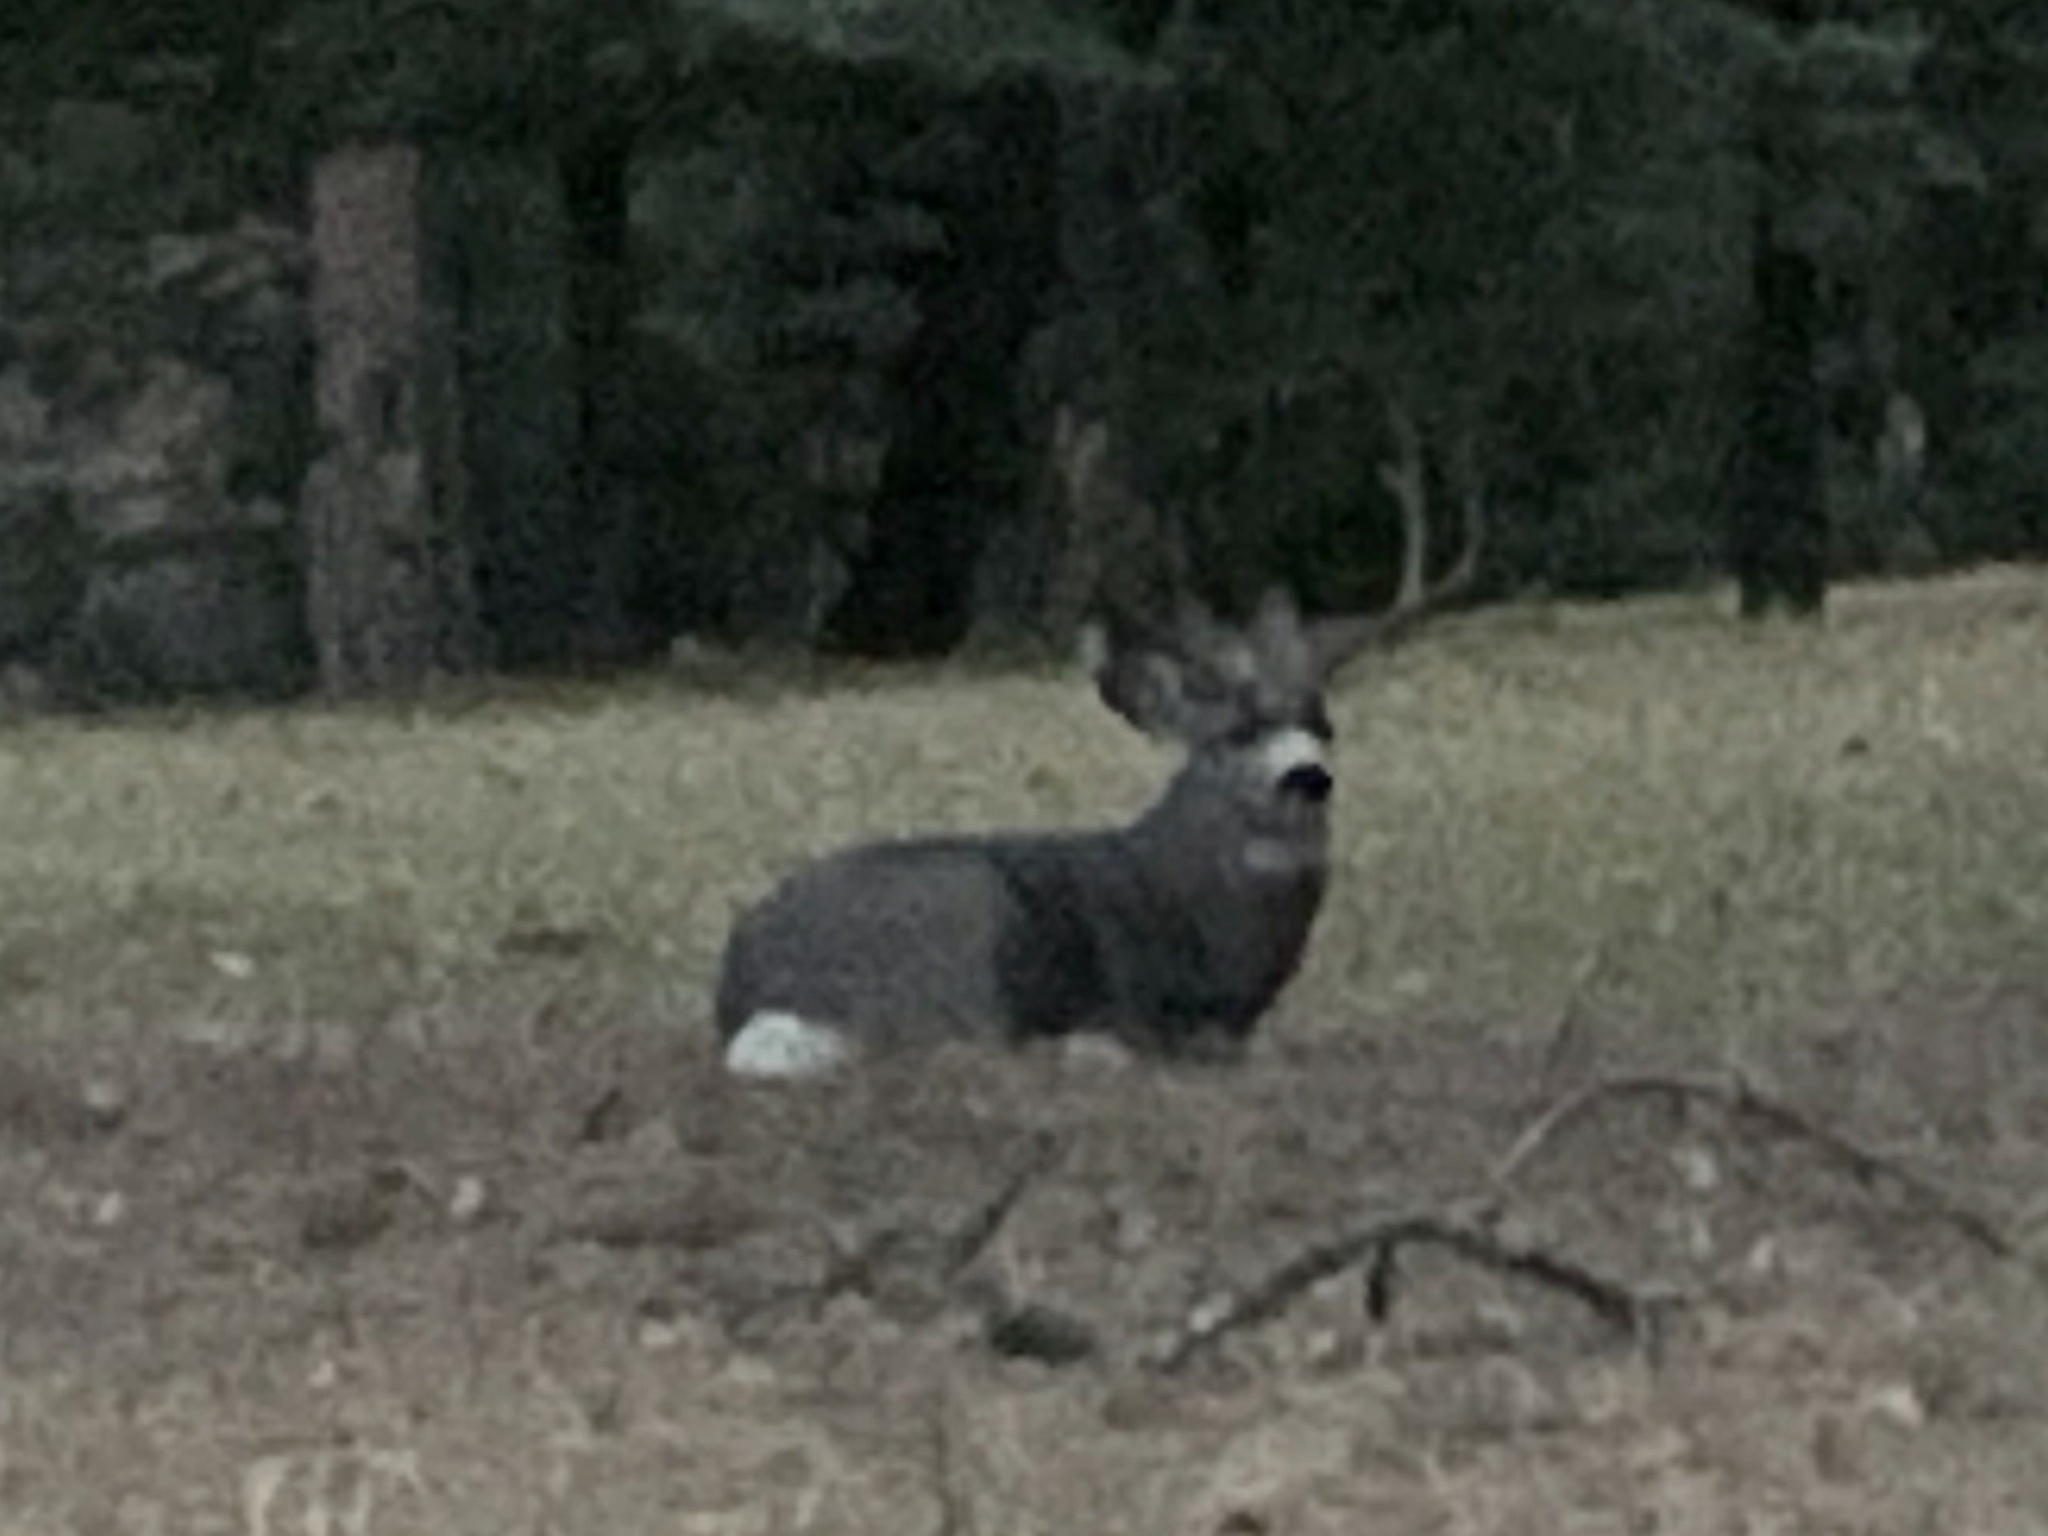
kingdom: Animalia
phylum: Chordata
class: Mammalia
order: Artiodactyla
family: Cervidae
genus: Odocoileus
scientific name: Odocoileus hemionus
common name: Mule deer
